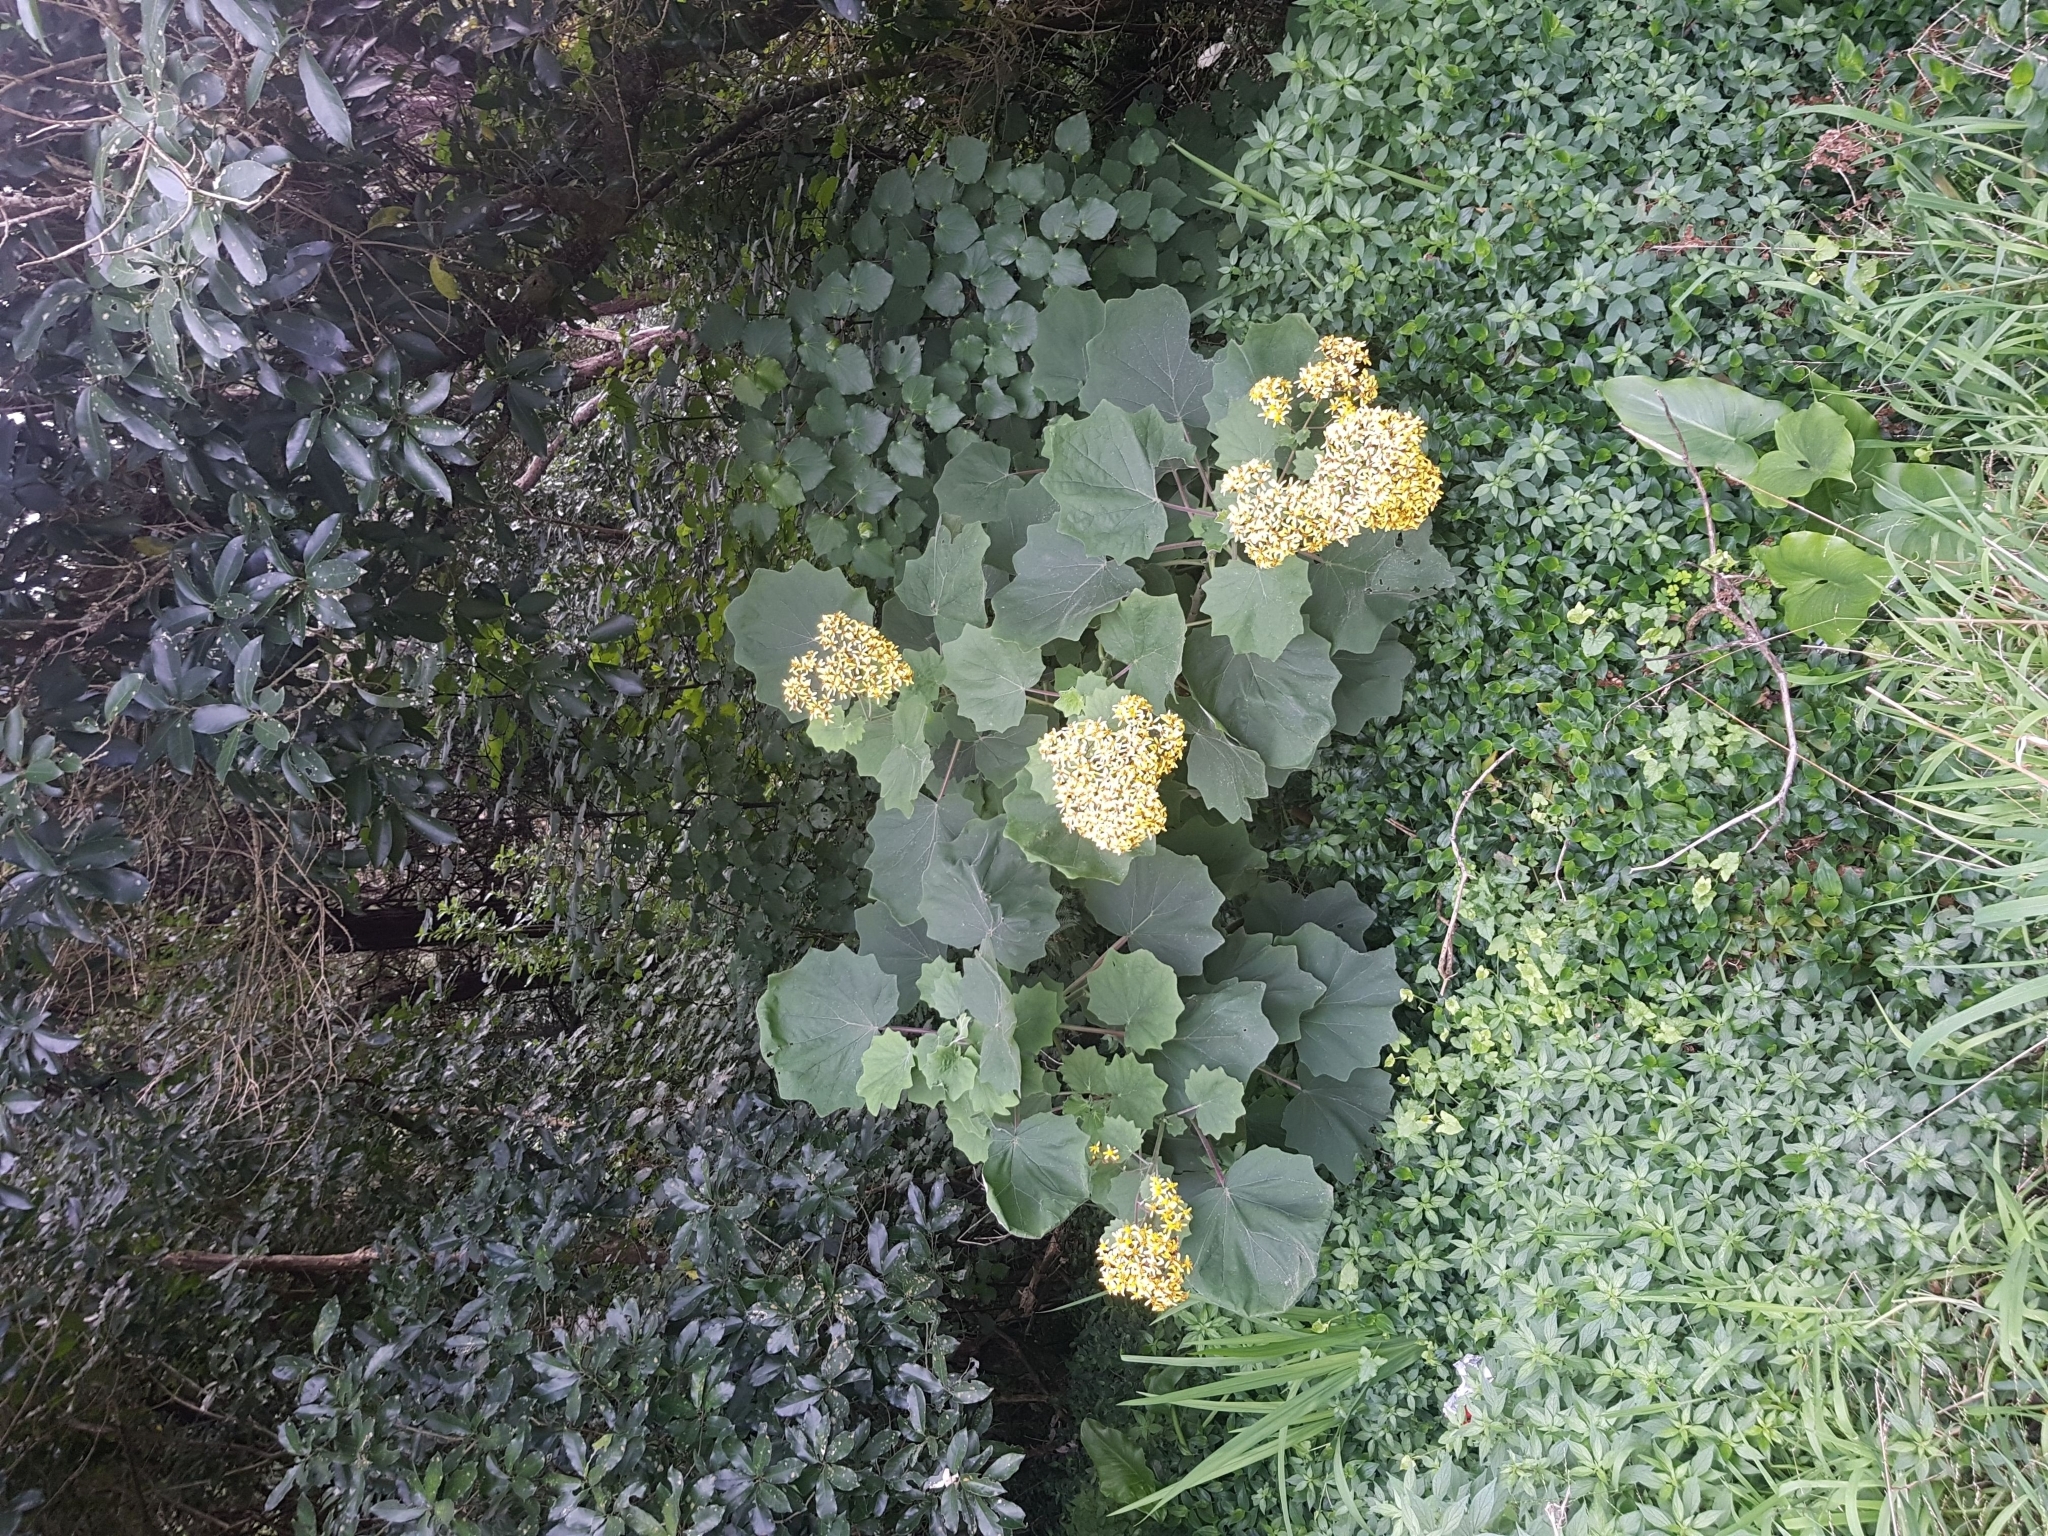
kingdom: Plantae
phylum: Tracheophyta
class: Magnoliopsida
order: Asterales
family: Asteraceae
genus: Roldana
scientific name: Roldana petasitis
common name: California-geranium
